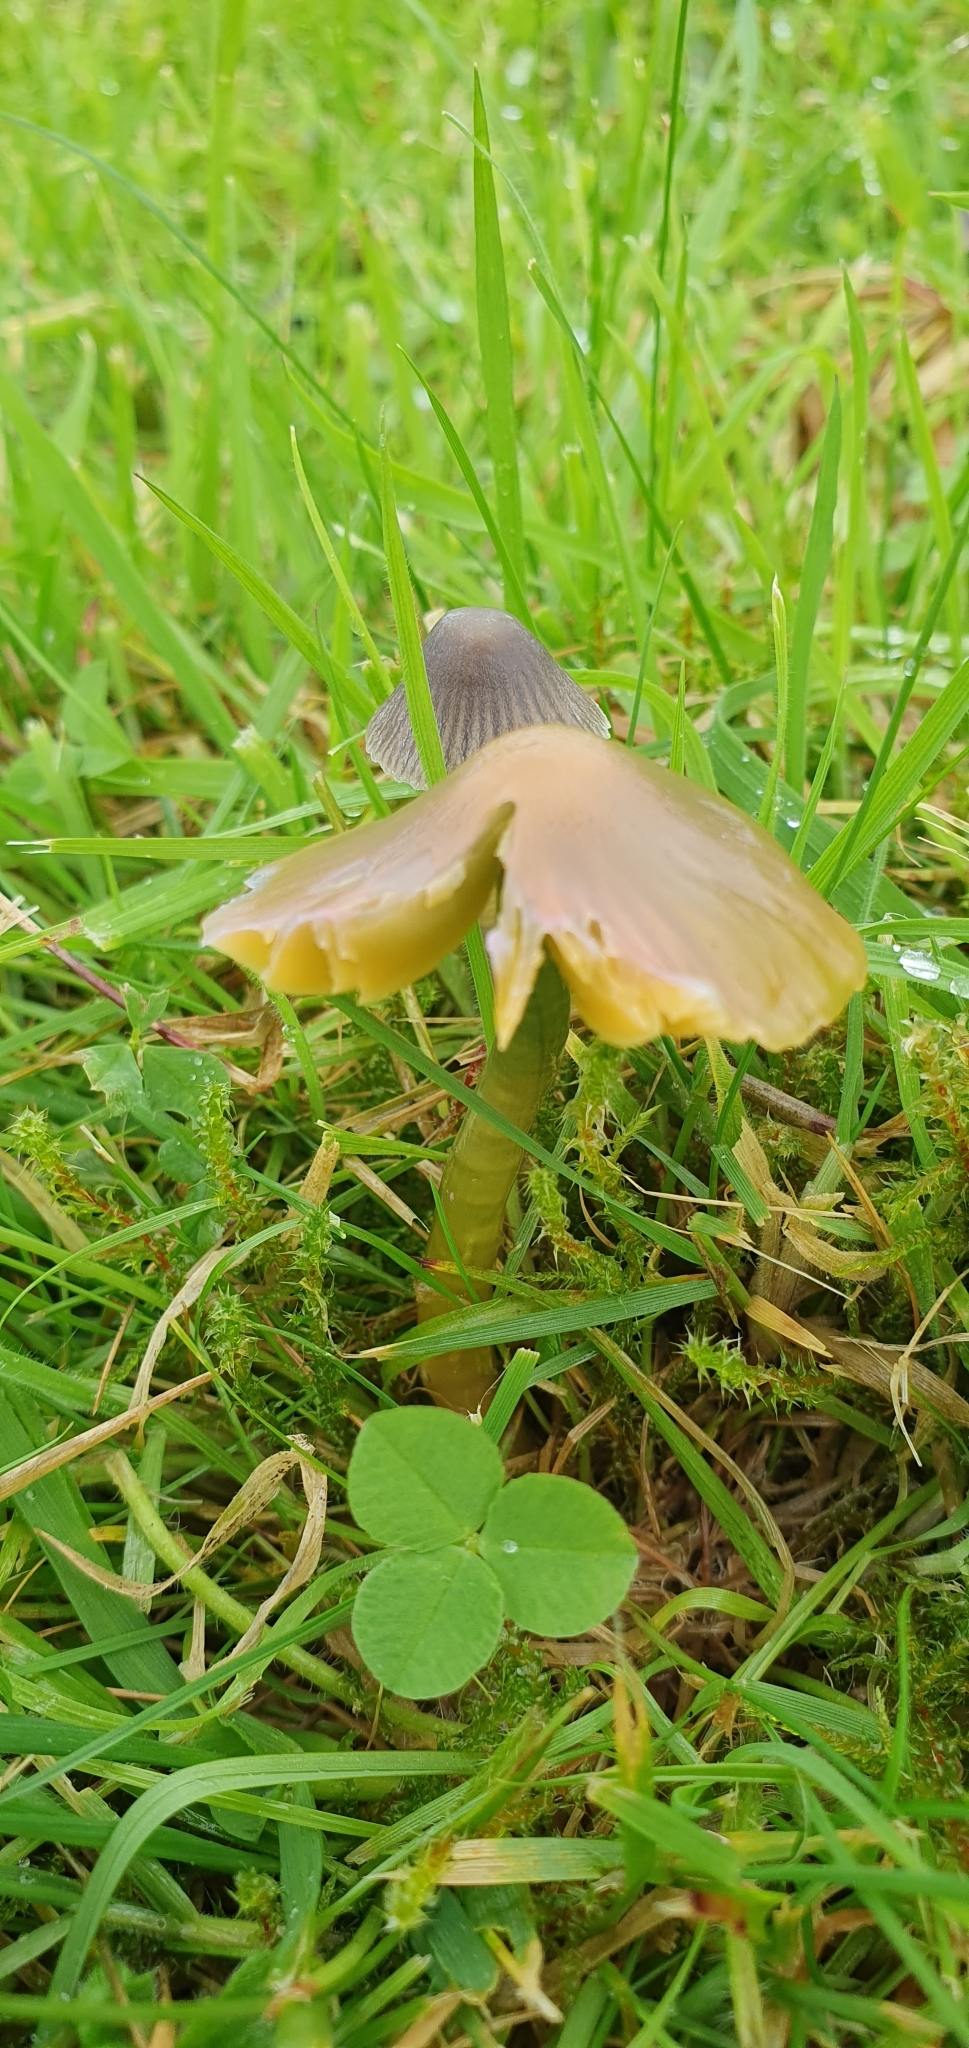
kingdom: Fungi
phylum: Basidiomycota
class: Agaricomycetes
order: Agaricales
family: Hygrophoraceae
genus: Gliophorus
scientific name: Gliophorus psittacinus
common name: Parrot wax-cap
